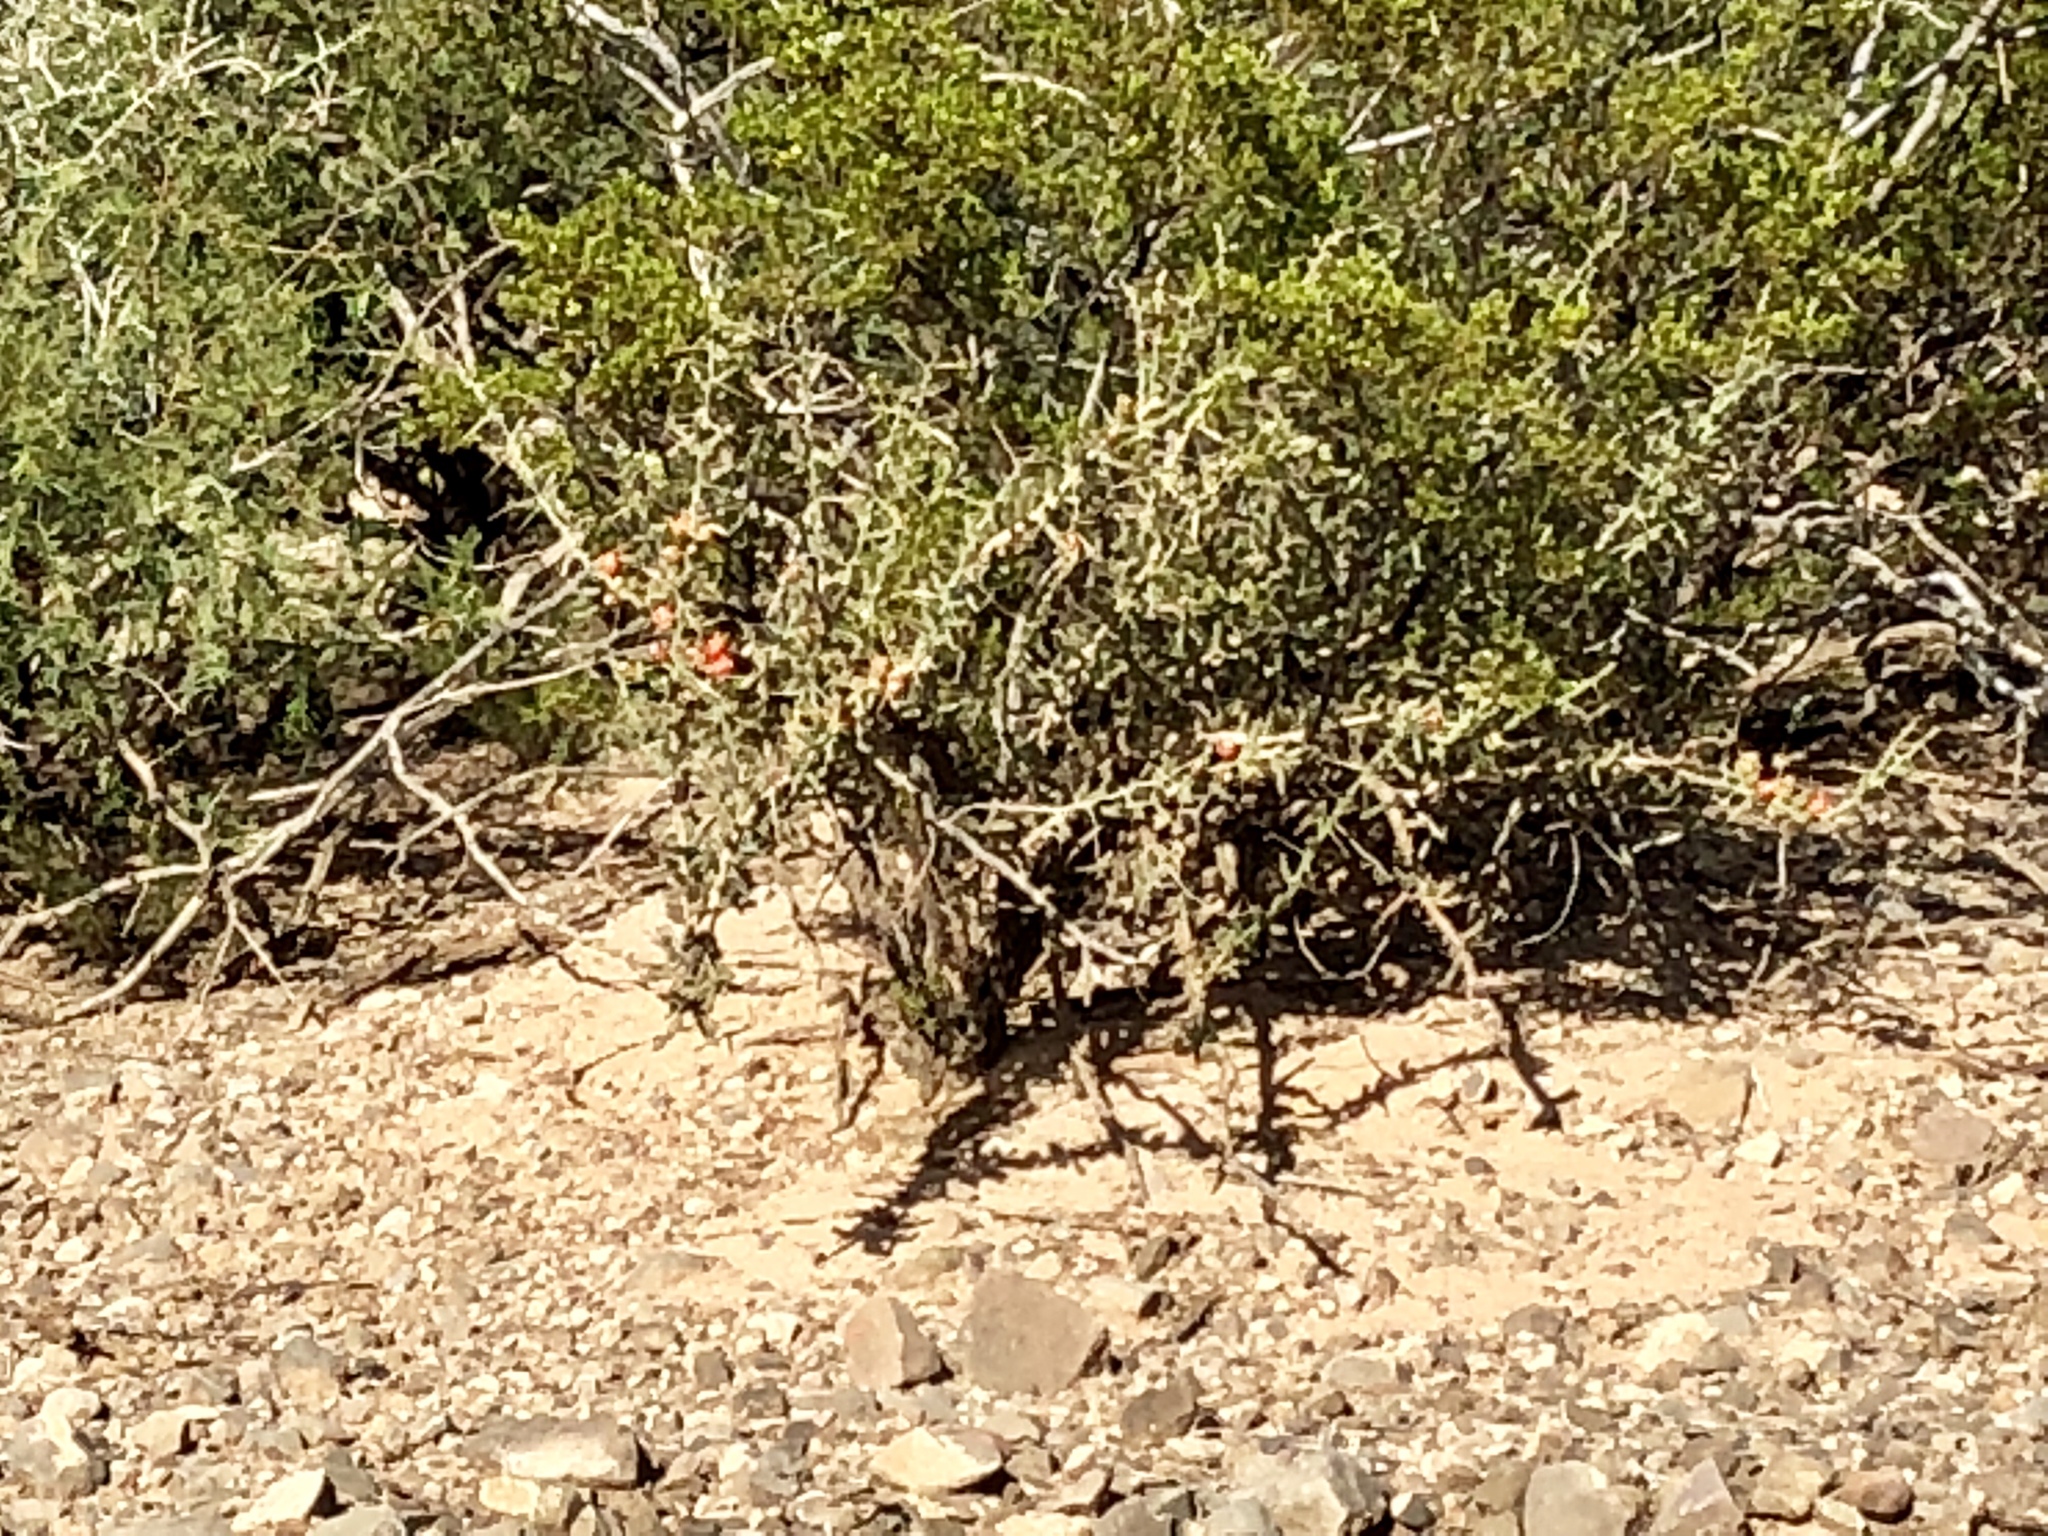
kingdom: Plantae
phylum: Tracheophyta
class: Magnoliopsida
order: Caryophyllales
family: Cactaceae
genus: Cylindropuntia
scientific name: Cylindropuntia leptocaulis
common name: Christmas cactus
